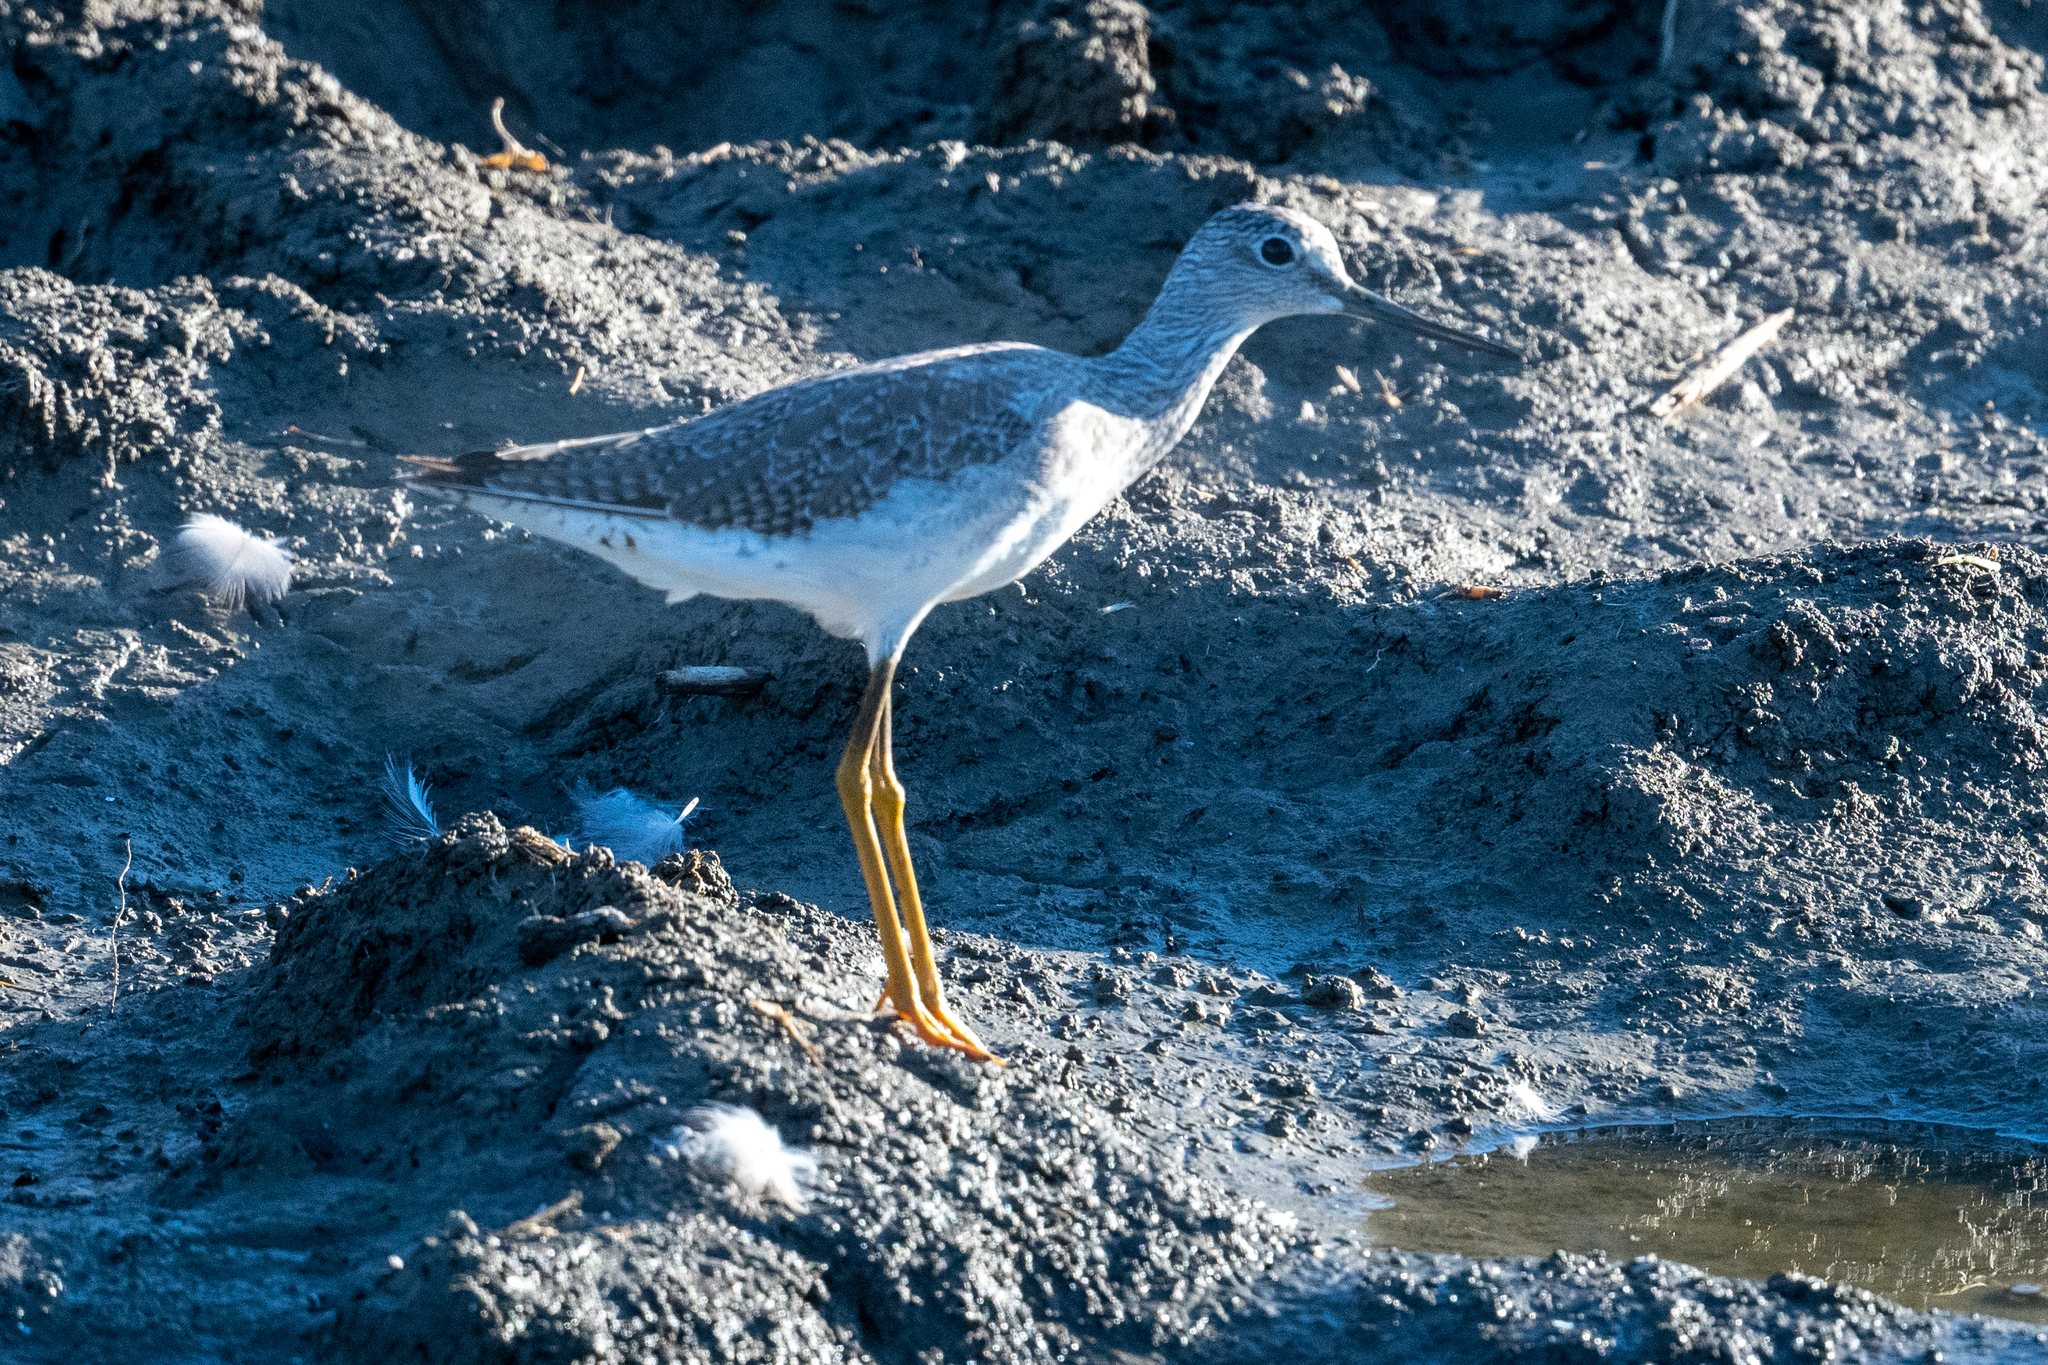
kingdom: Animalia
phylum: Chordata
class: Aves
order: Charadriiformes
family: Scolopacidae
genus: Tringa
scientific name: Tringa melanoleuca
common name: Greater yellowlegs
